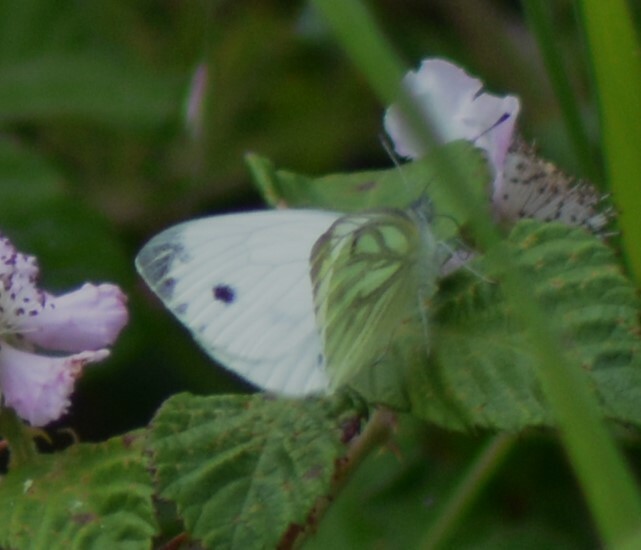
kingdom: Animalia
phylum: Arthropoda
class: Insecta
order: Lepidoptera
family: Pieridae
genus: Pieris
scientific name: Pieris napi
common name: Green-veined white
